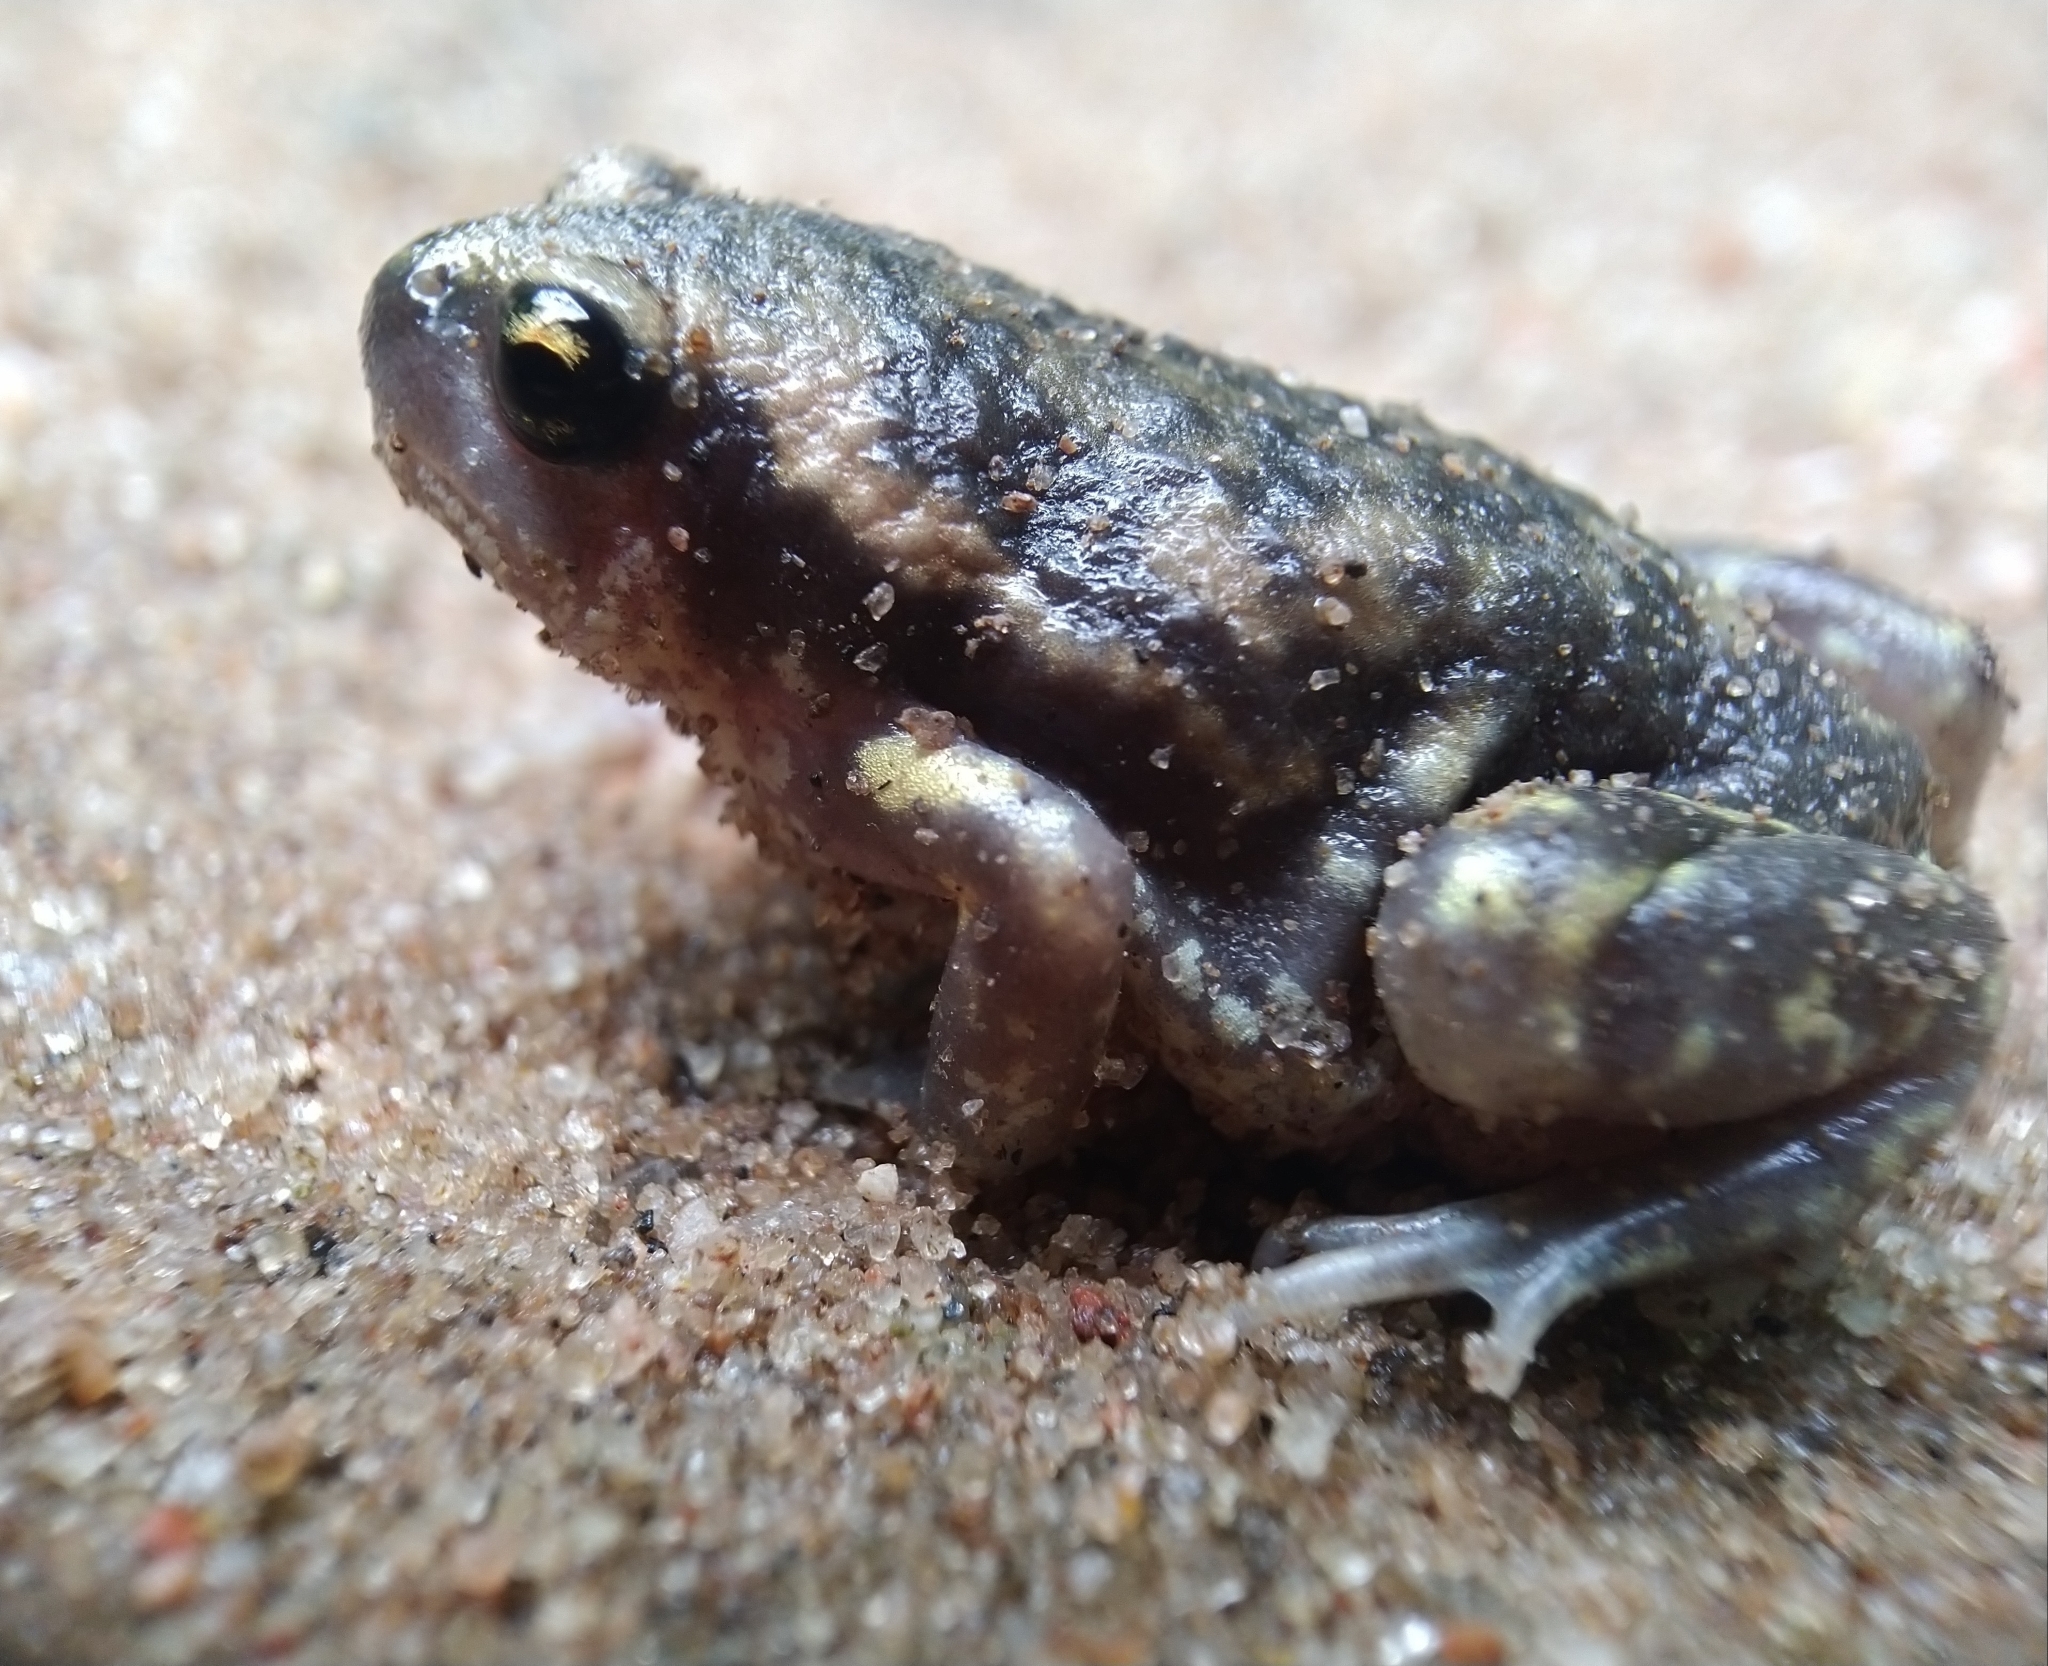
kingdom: Animalia
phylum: Chordata
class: Amphibia
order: Anura
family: Microhylidae
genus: Uperodon
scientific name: Uperodon systoma
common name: Balloon frog
